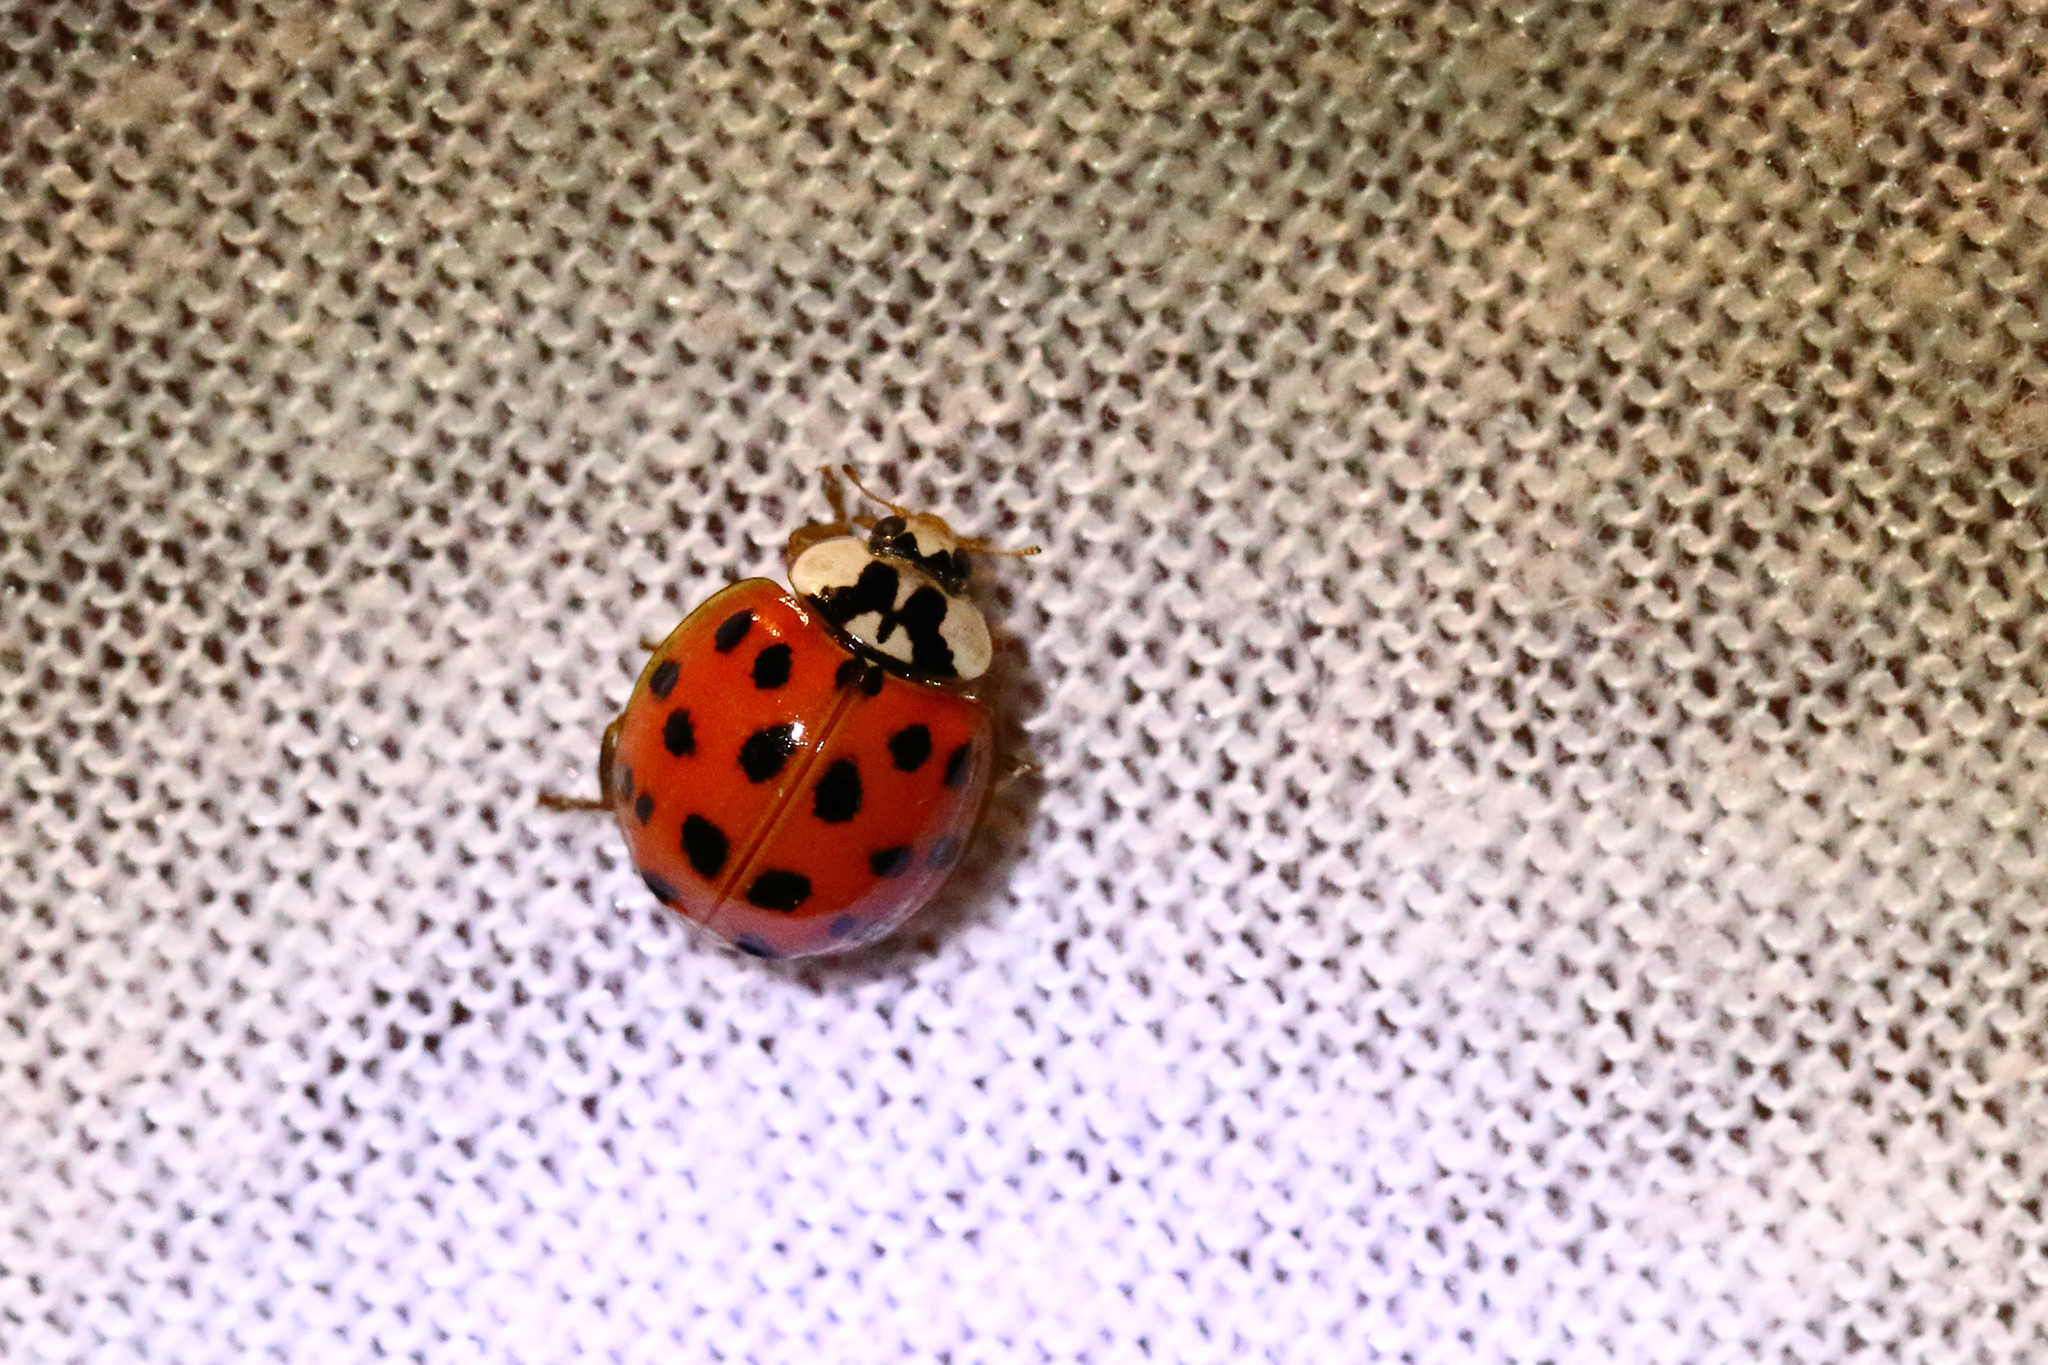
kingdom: Animalia
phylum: Arthropoda
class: Insecta
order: Coleoptera
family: Coccinellidae
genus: Harmonia
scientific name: Harmonia axyridis
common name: Harlequin ladybird
